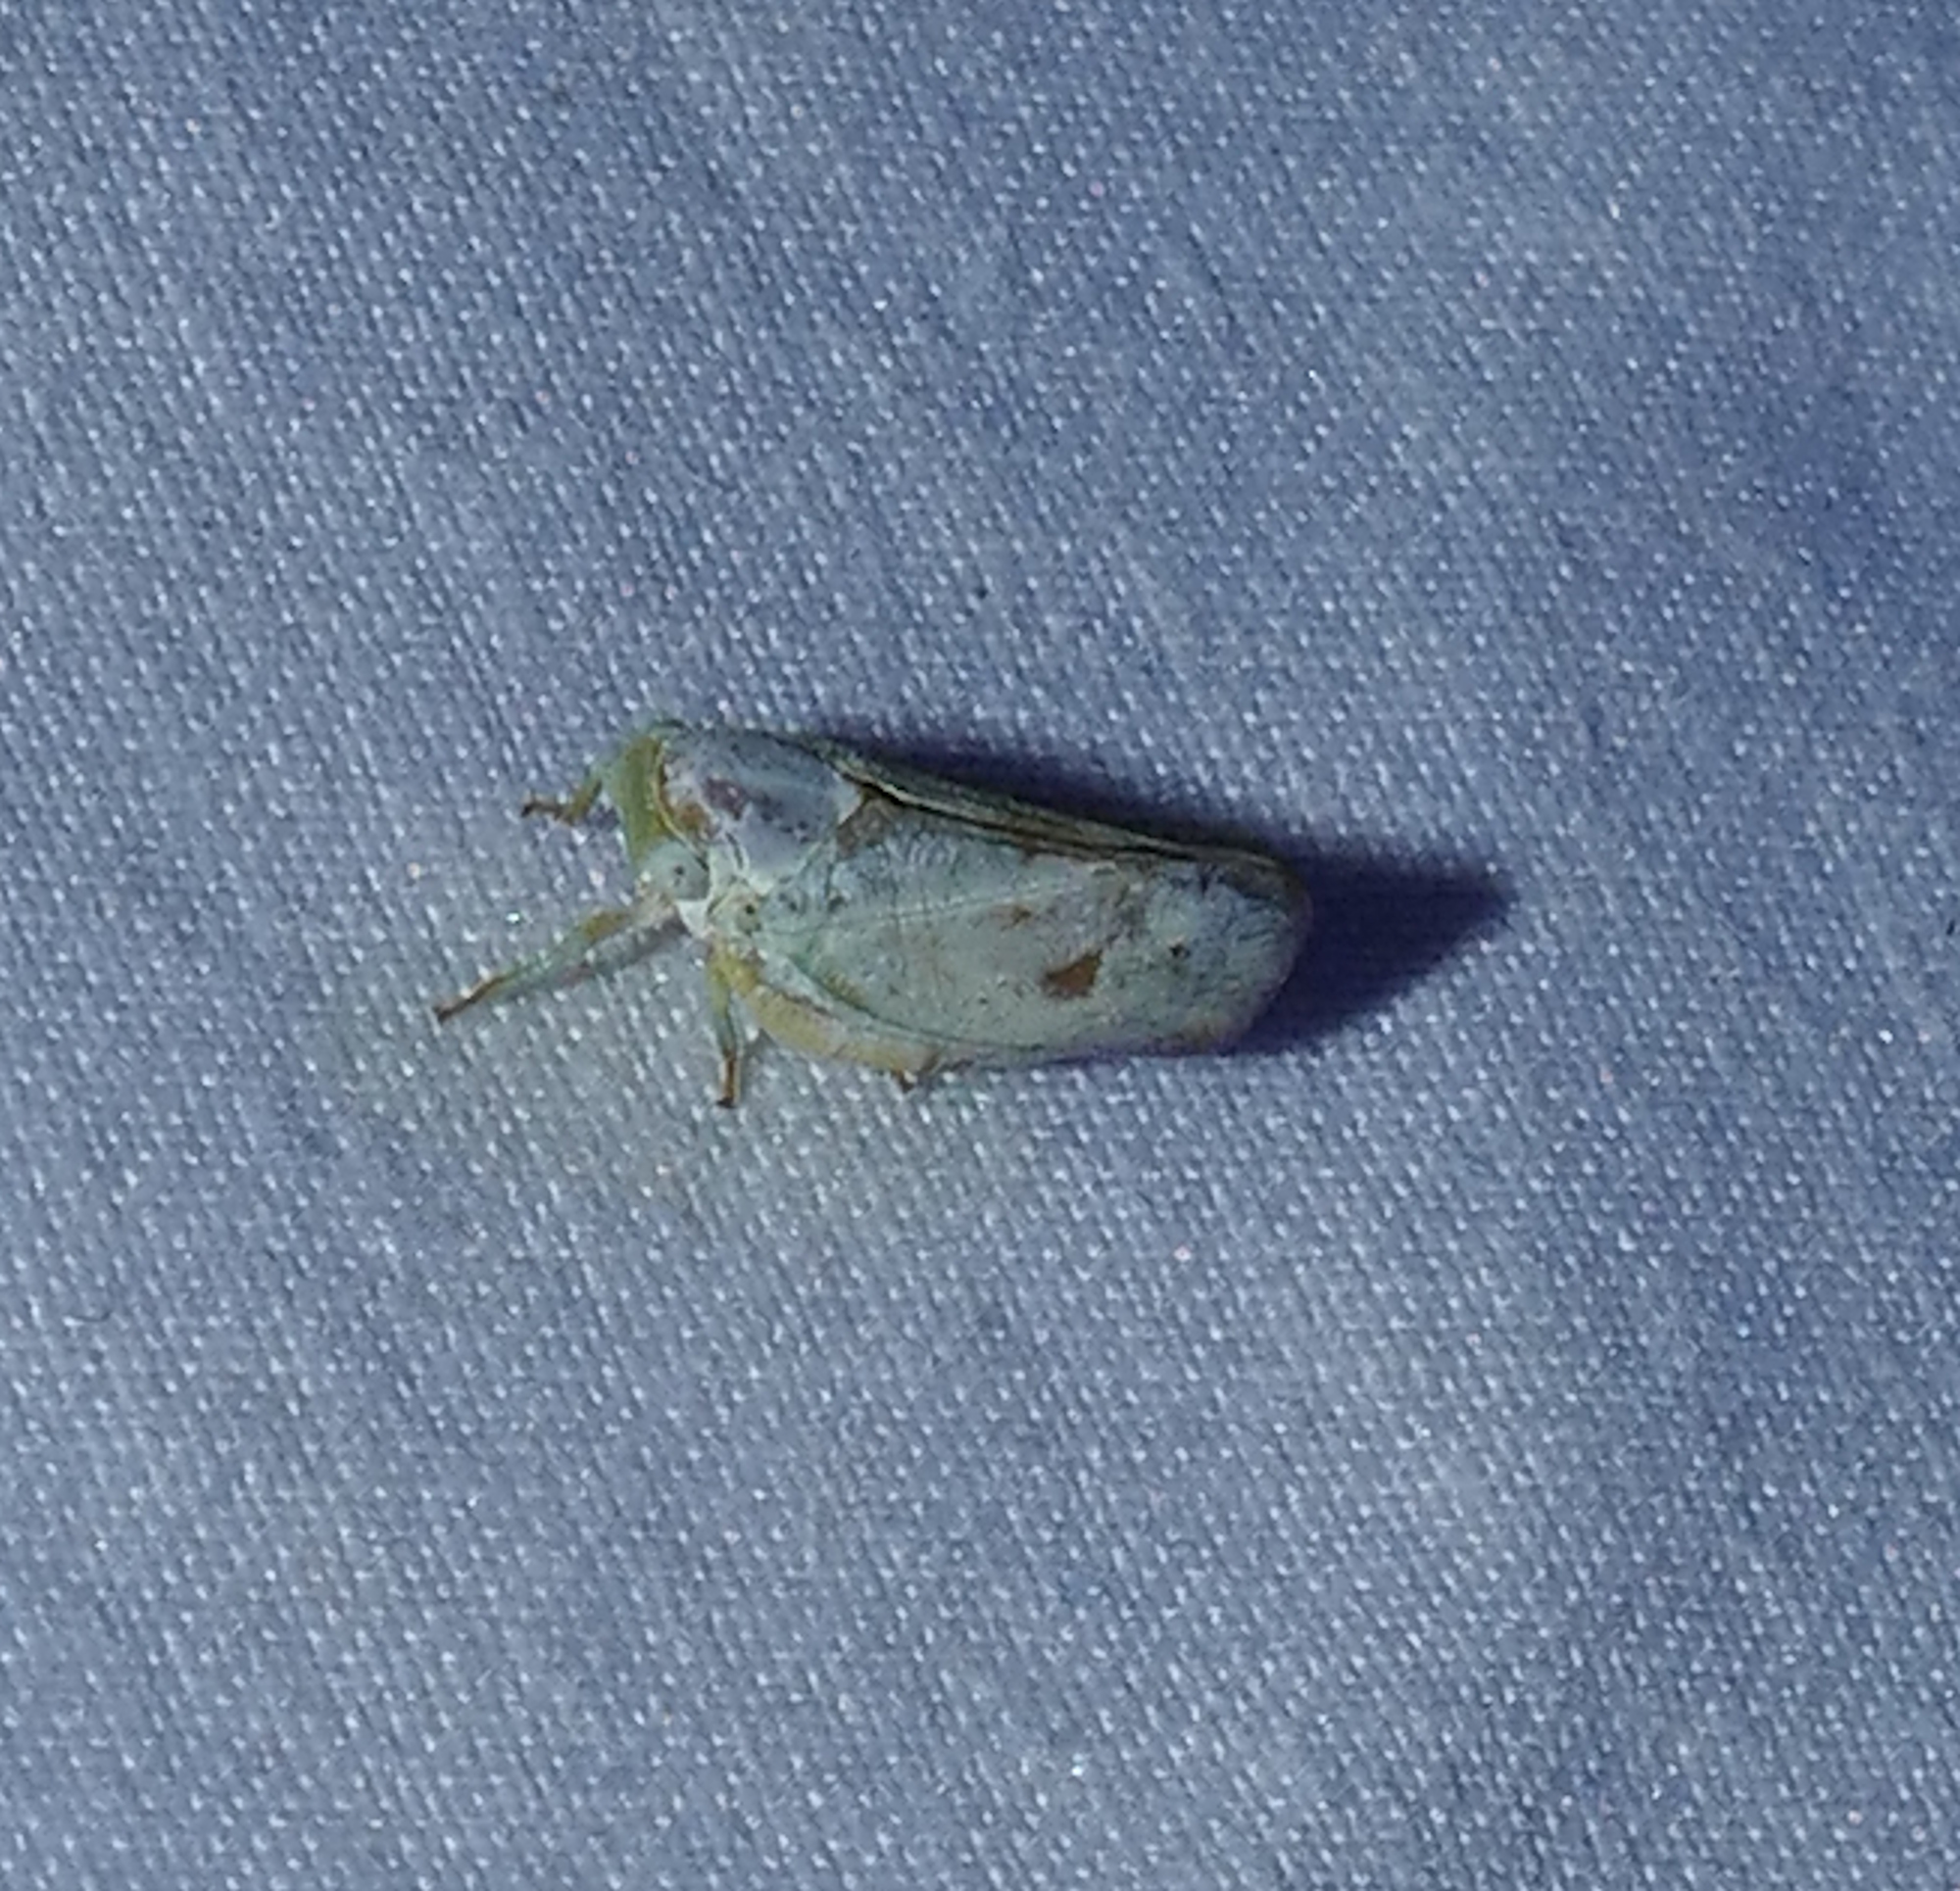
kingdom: Animalia
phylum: Arthropoda
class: Insecta
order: Hemiptera
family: Flatidae
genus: Flatormenis
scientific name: Flatormenis saucia
